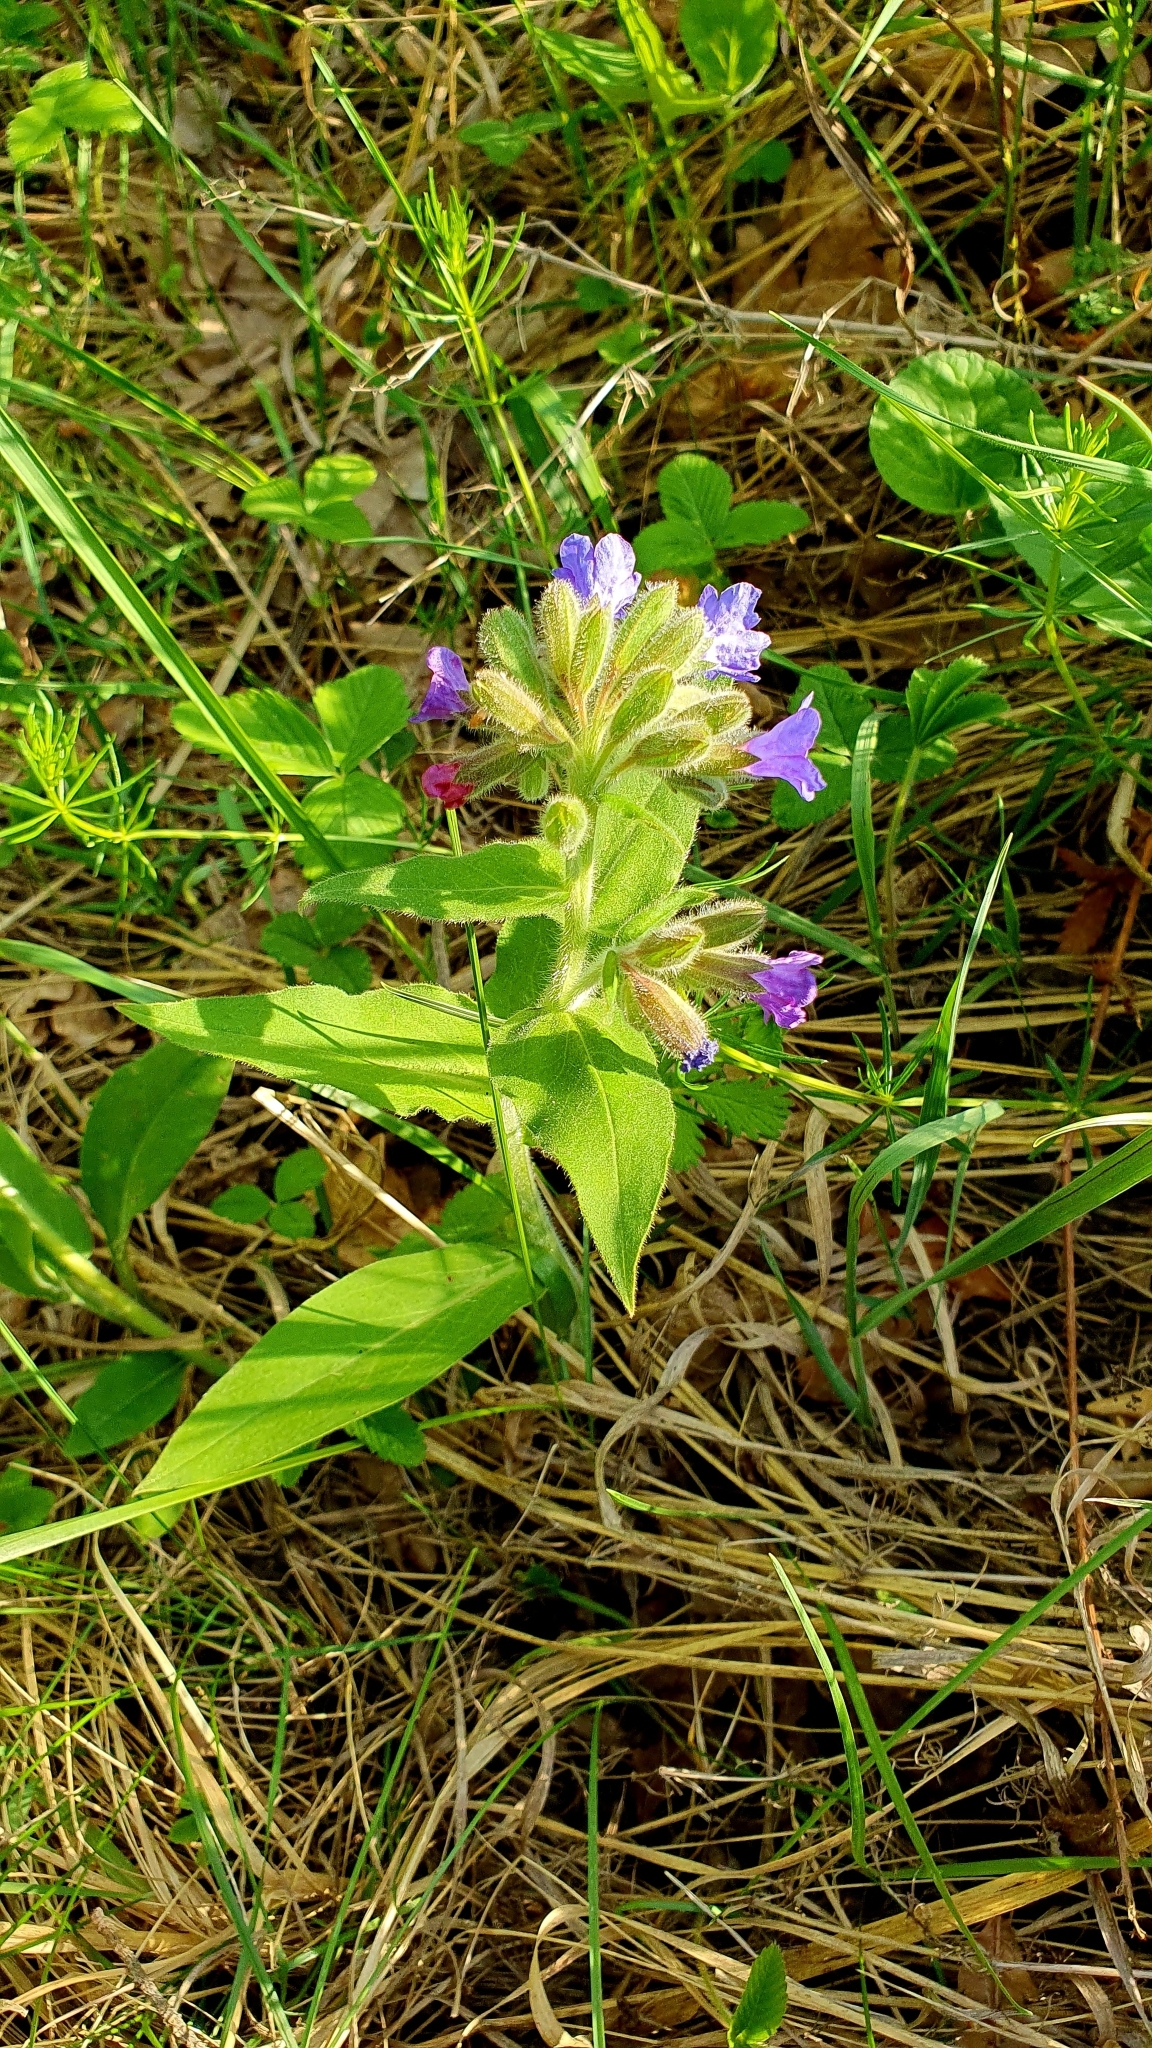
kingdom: Plantae
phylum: Tracheophyta
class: Magnoliopsida
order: Boraginales
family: Boraginaceae
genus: Pulmonaria
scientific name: Pulmonaria mollis
